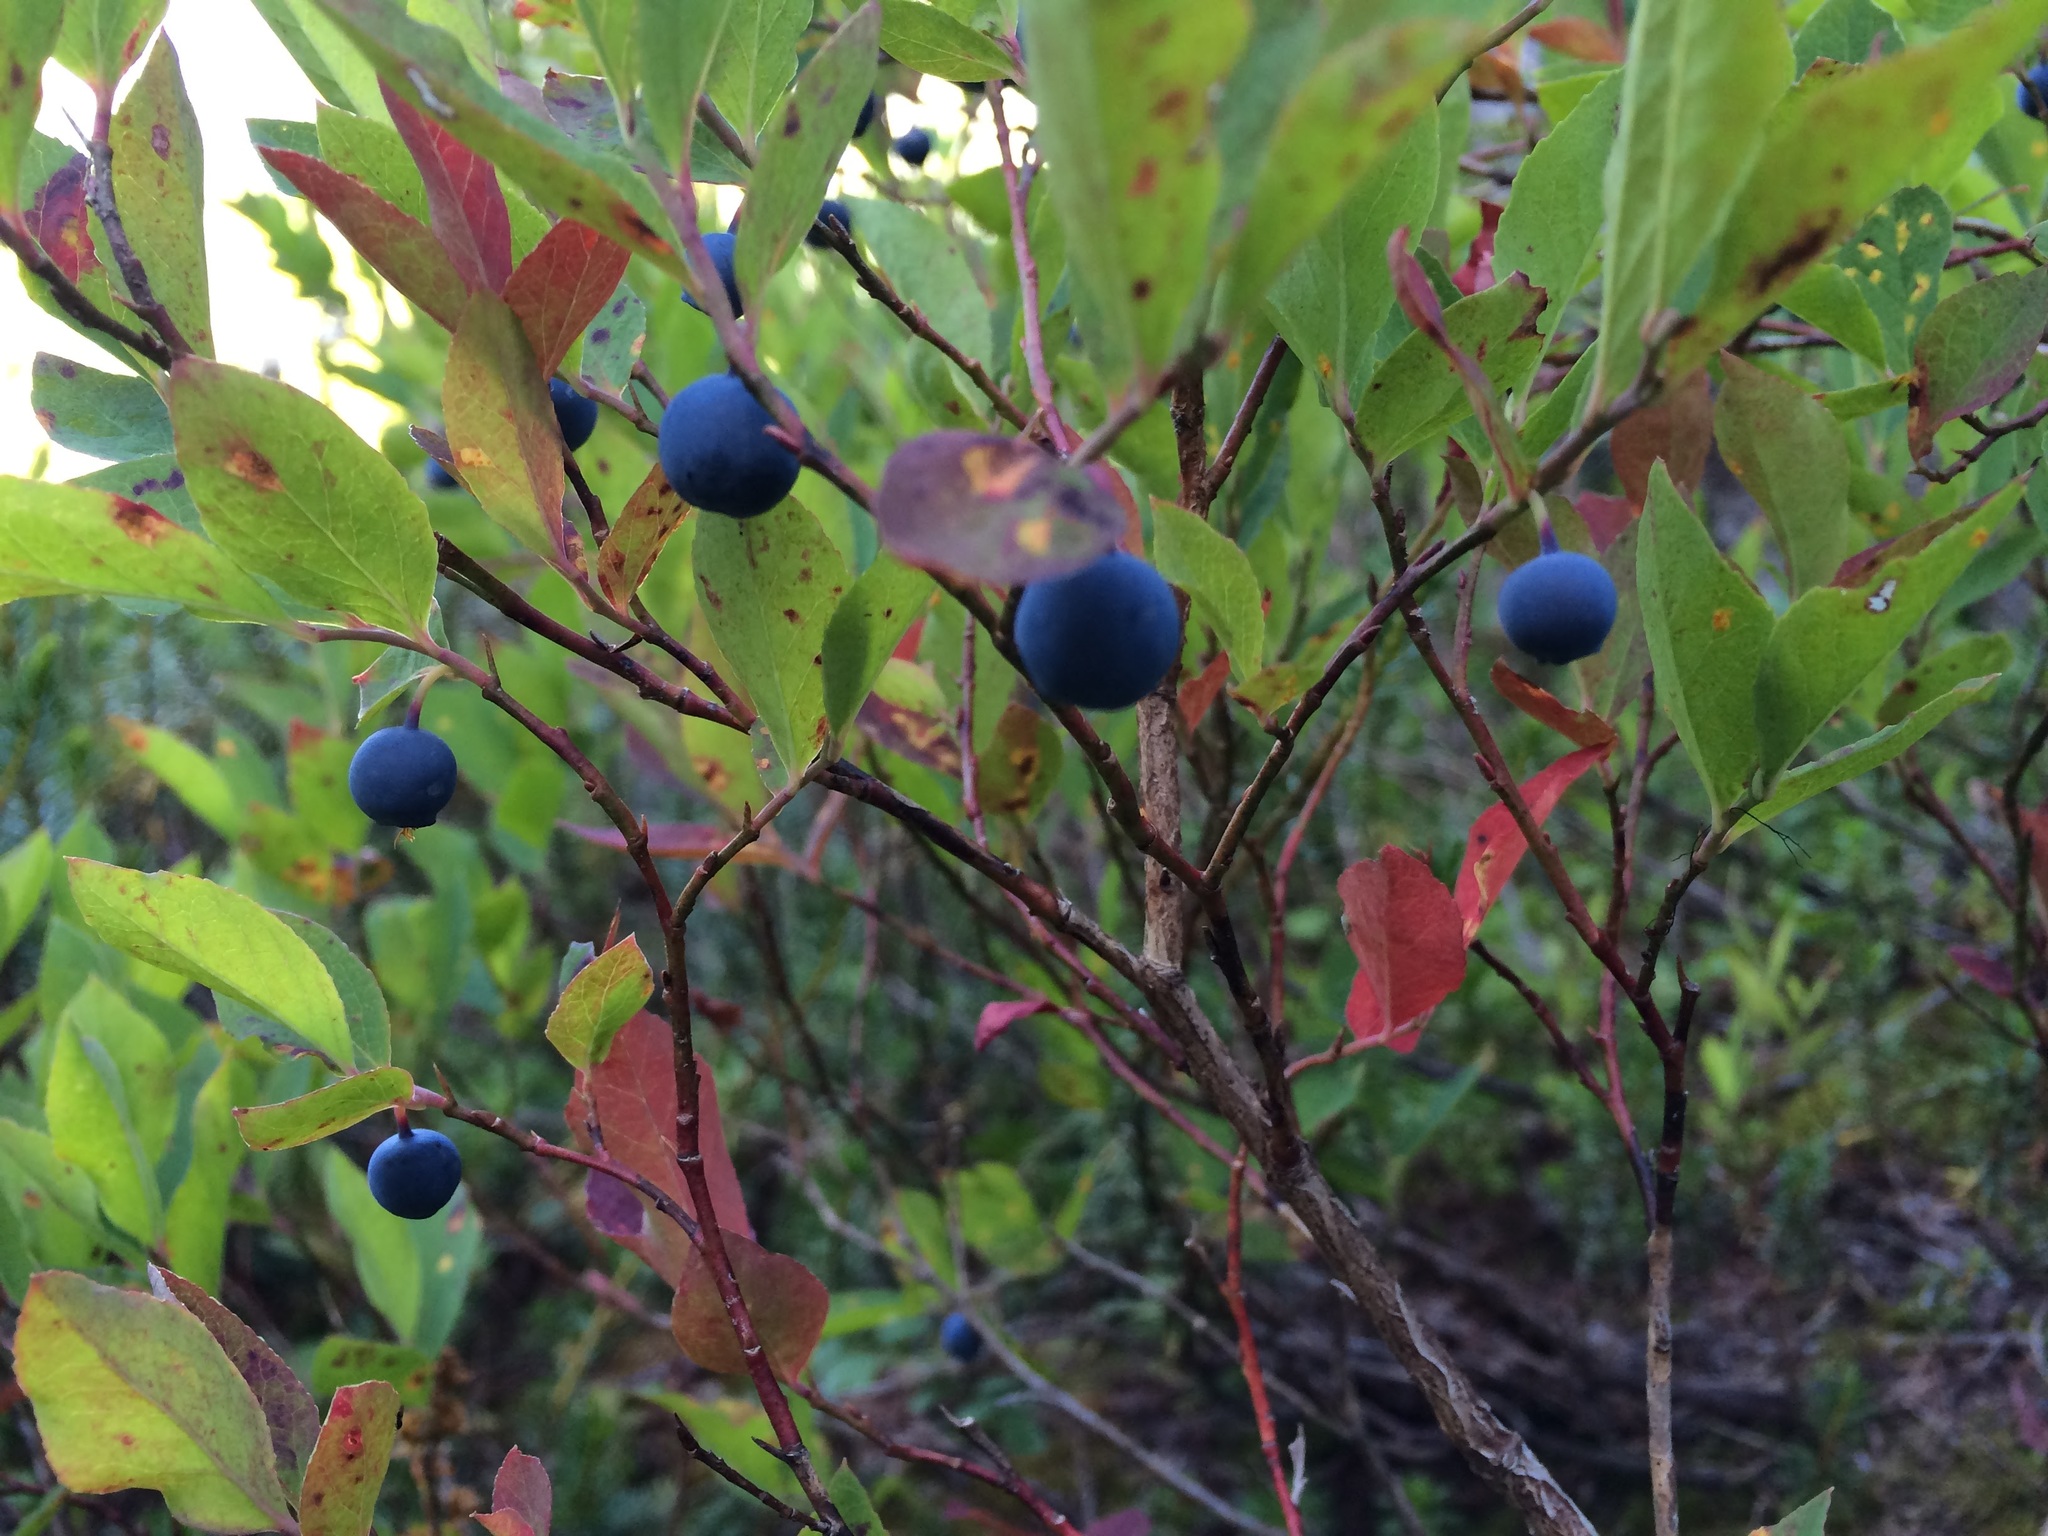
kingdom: Plantae
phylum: Tracheophyta
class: Magnoliopsida
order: Ericales
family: Ericaceae
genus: Vaccinium
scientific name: Vaccinium deliciosum
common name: Cascade bilberry
